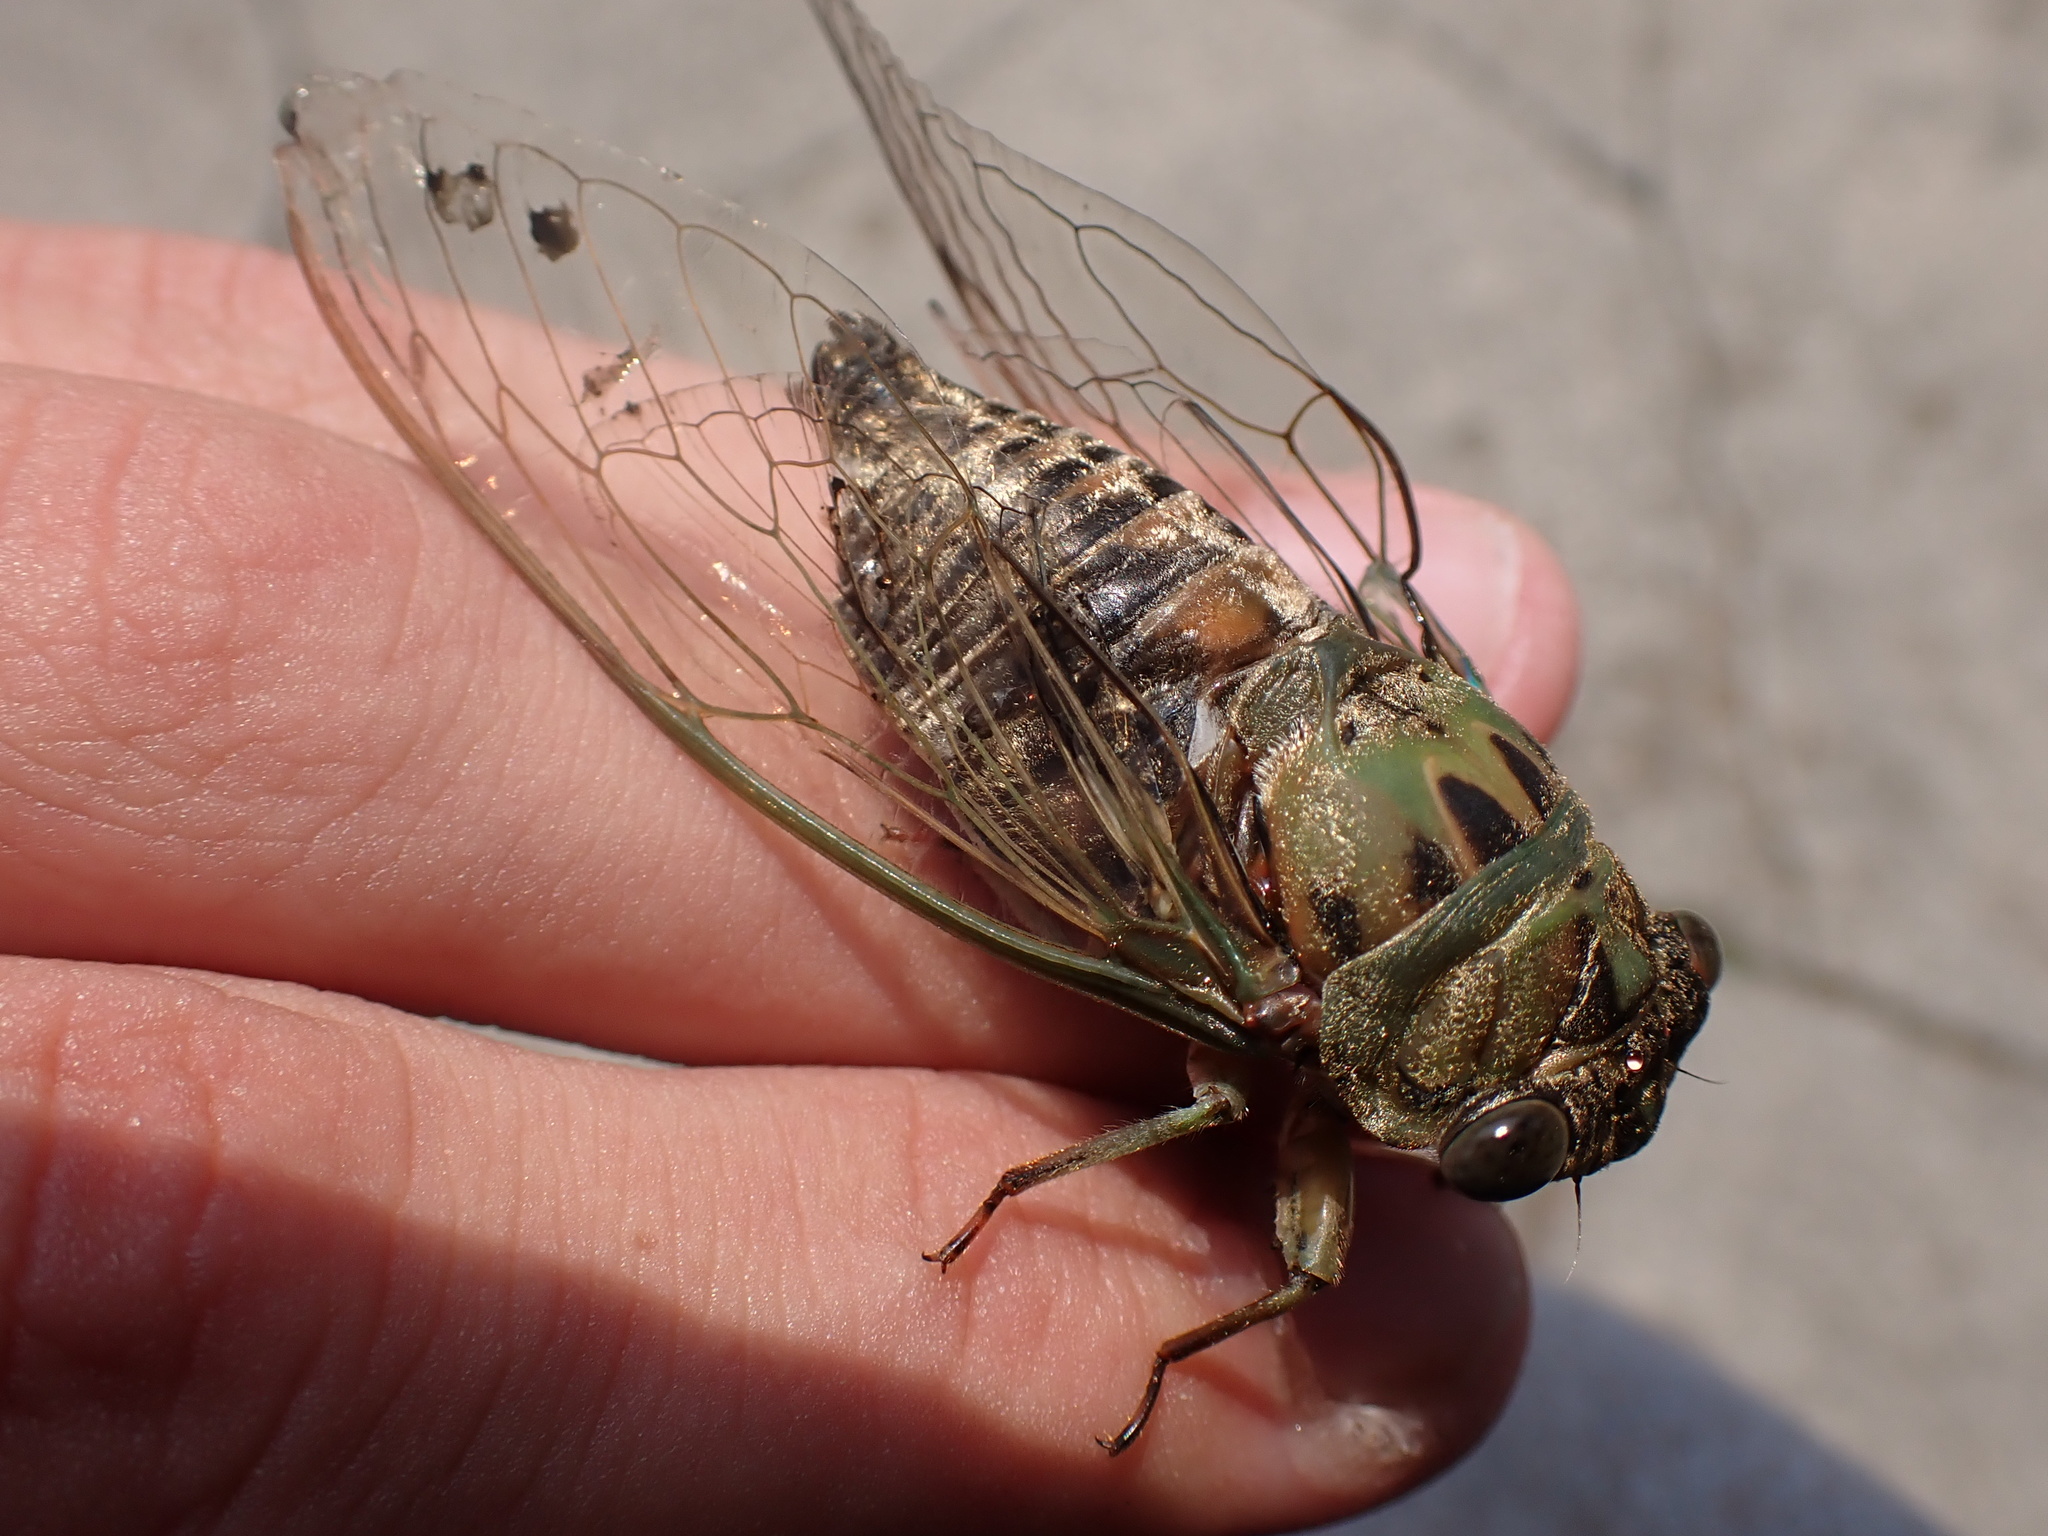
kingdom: Animalia
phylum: Arthropoda
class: Insecta
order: Hemiptera
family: Cicadidae
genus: Neotibicen
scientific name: Neotibicen winnemanna
